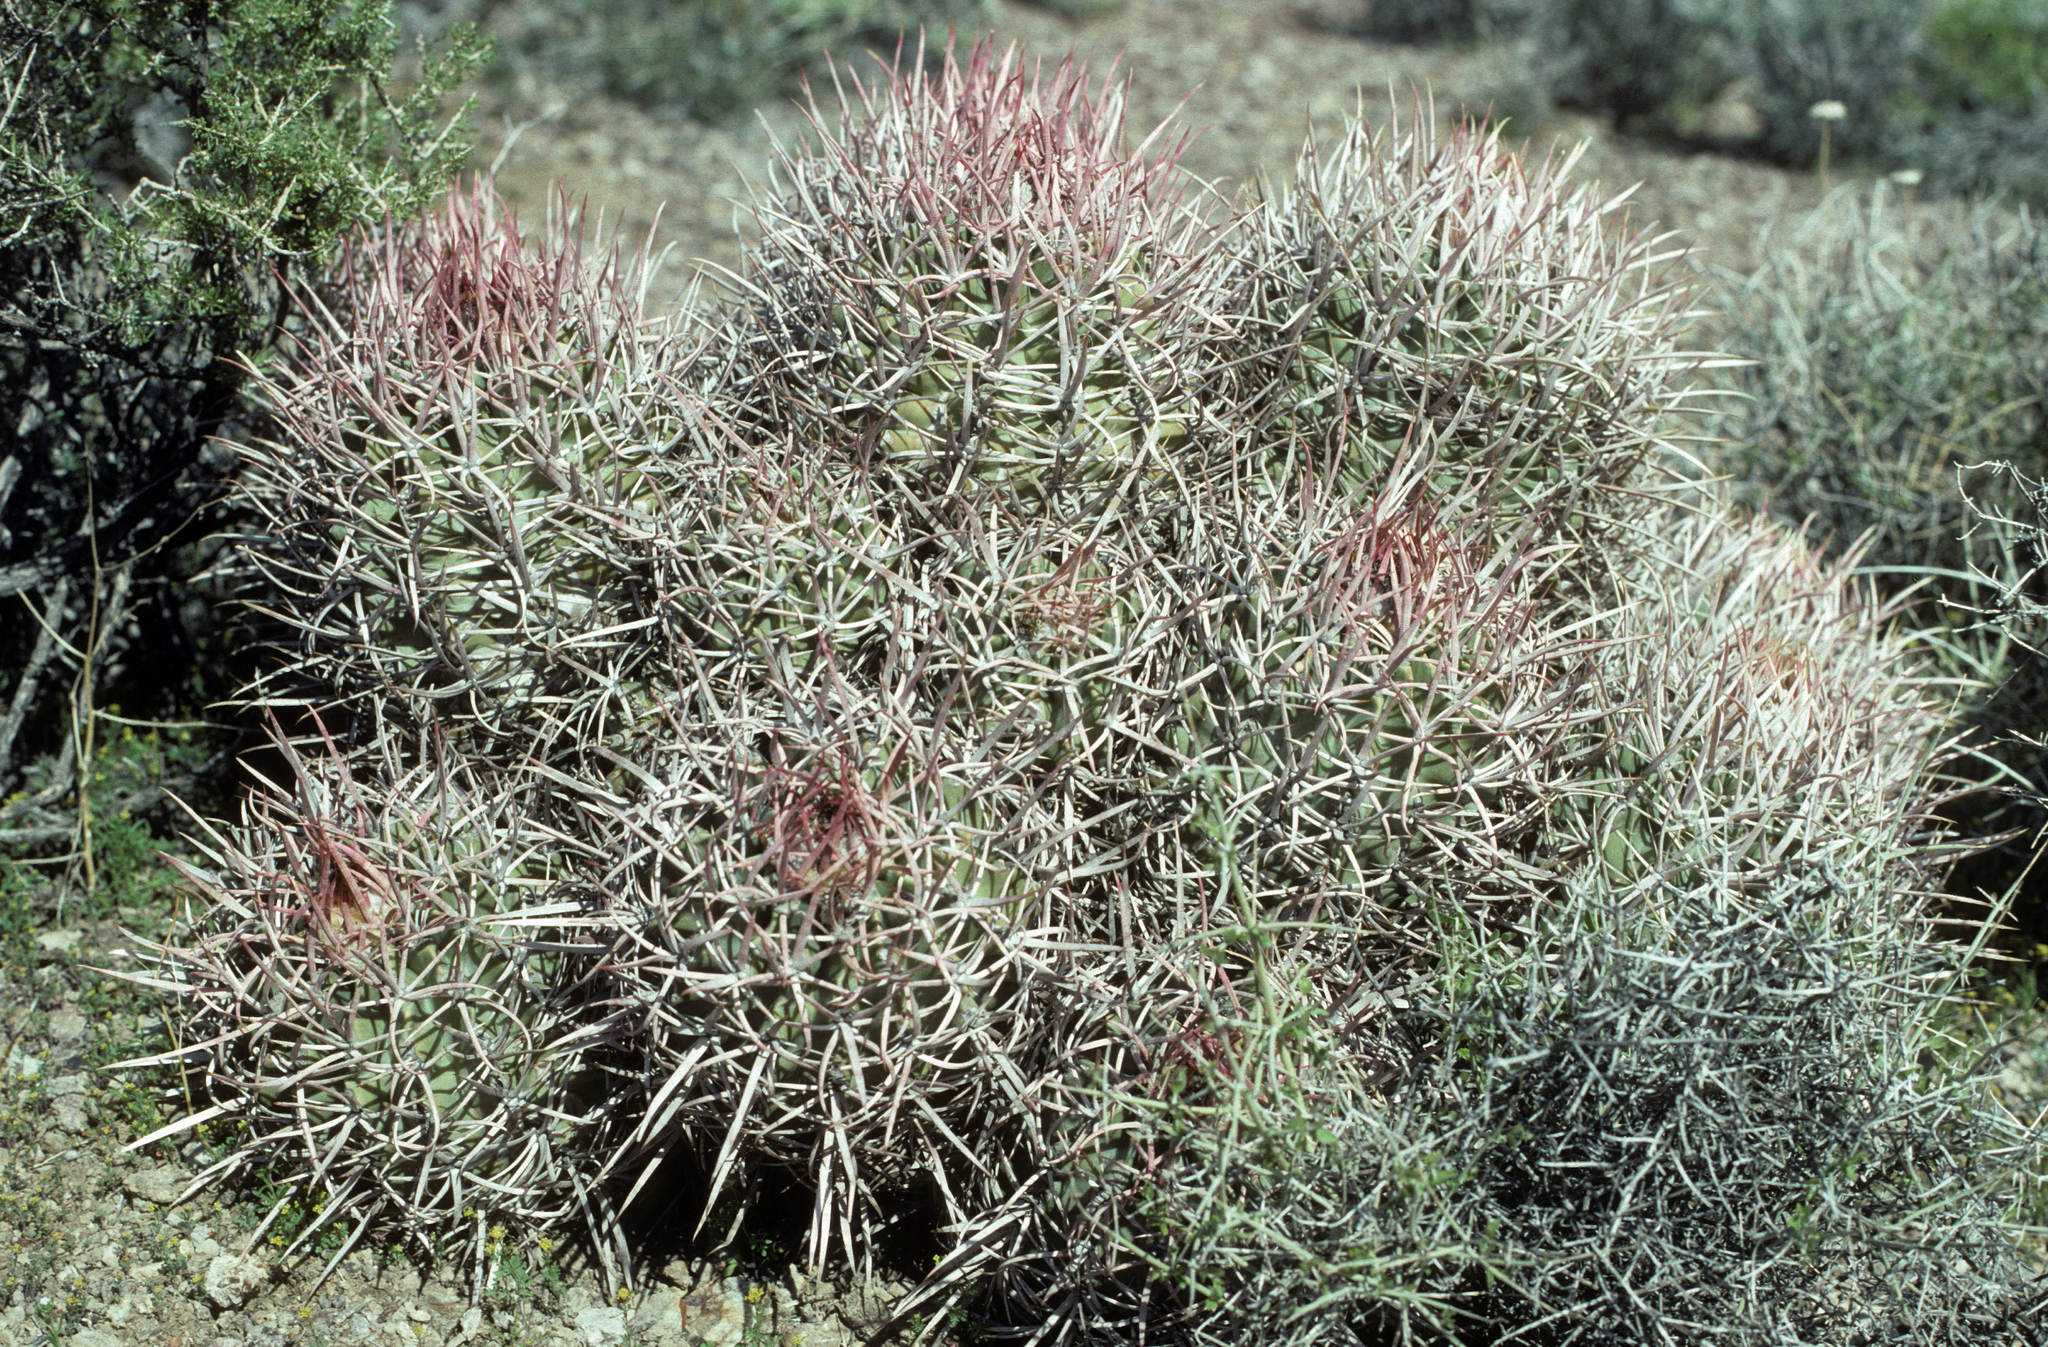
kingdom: Plantae
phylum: Tracheophyta
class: Magnoliopsida
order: Caryophyllales
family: Cactaceae
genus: Echinocactus
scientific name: Echinocactus polycephalus
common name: Cottontop cactus
